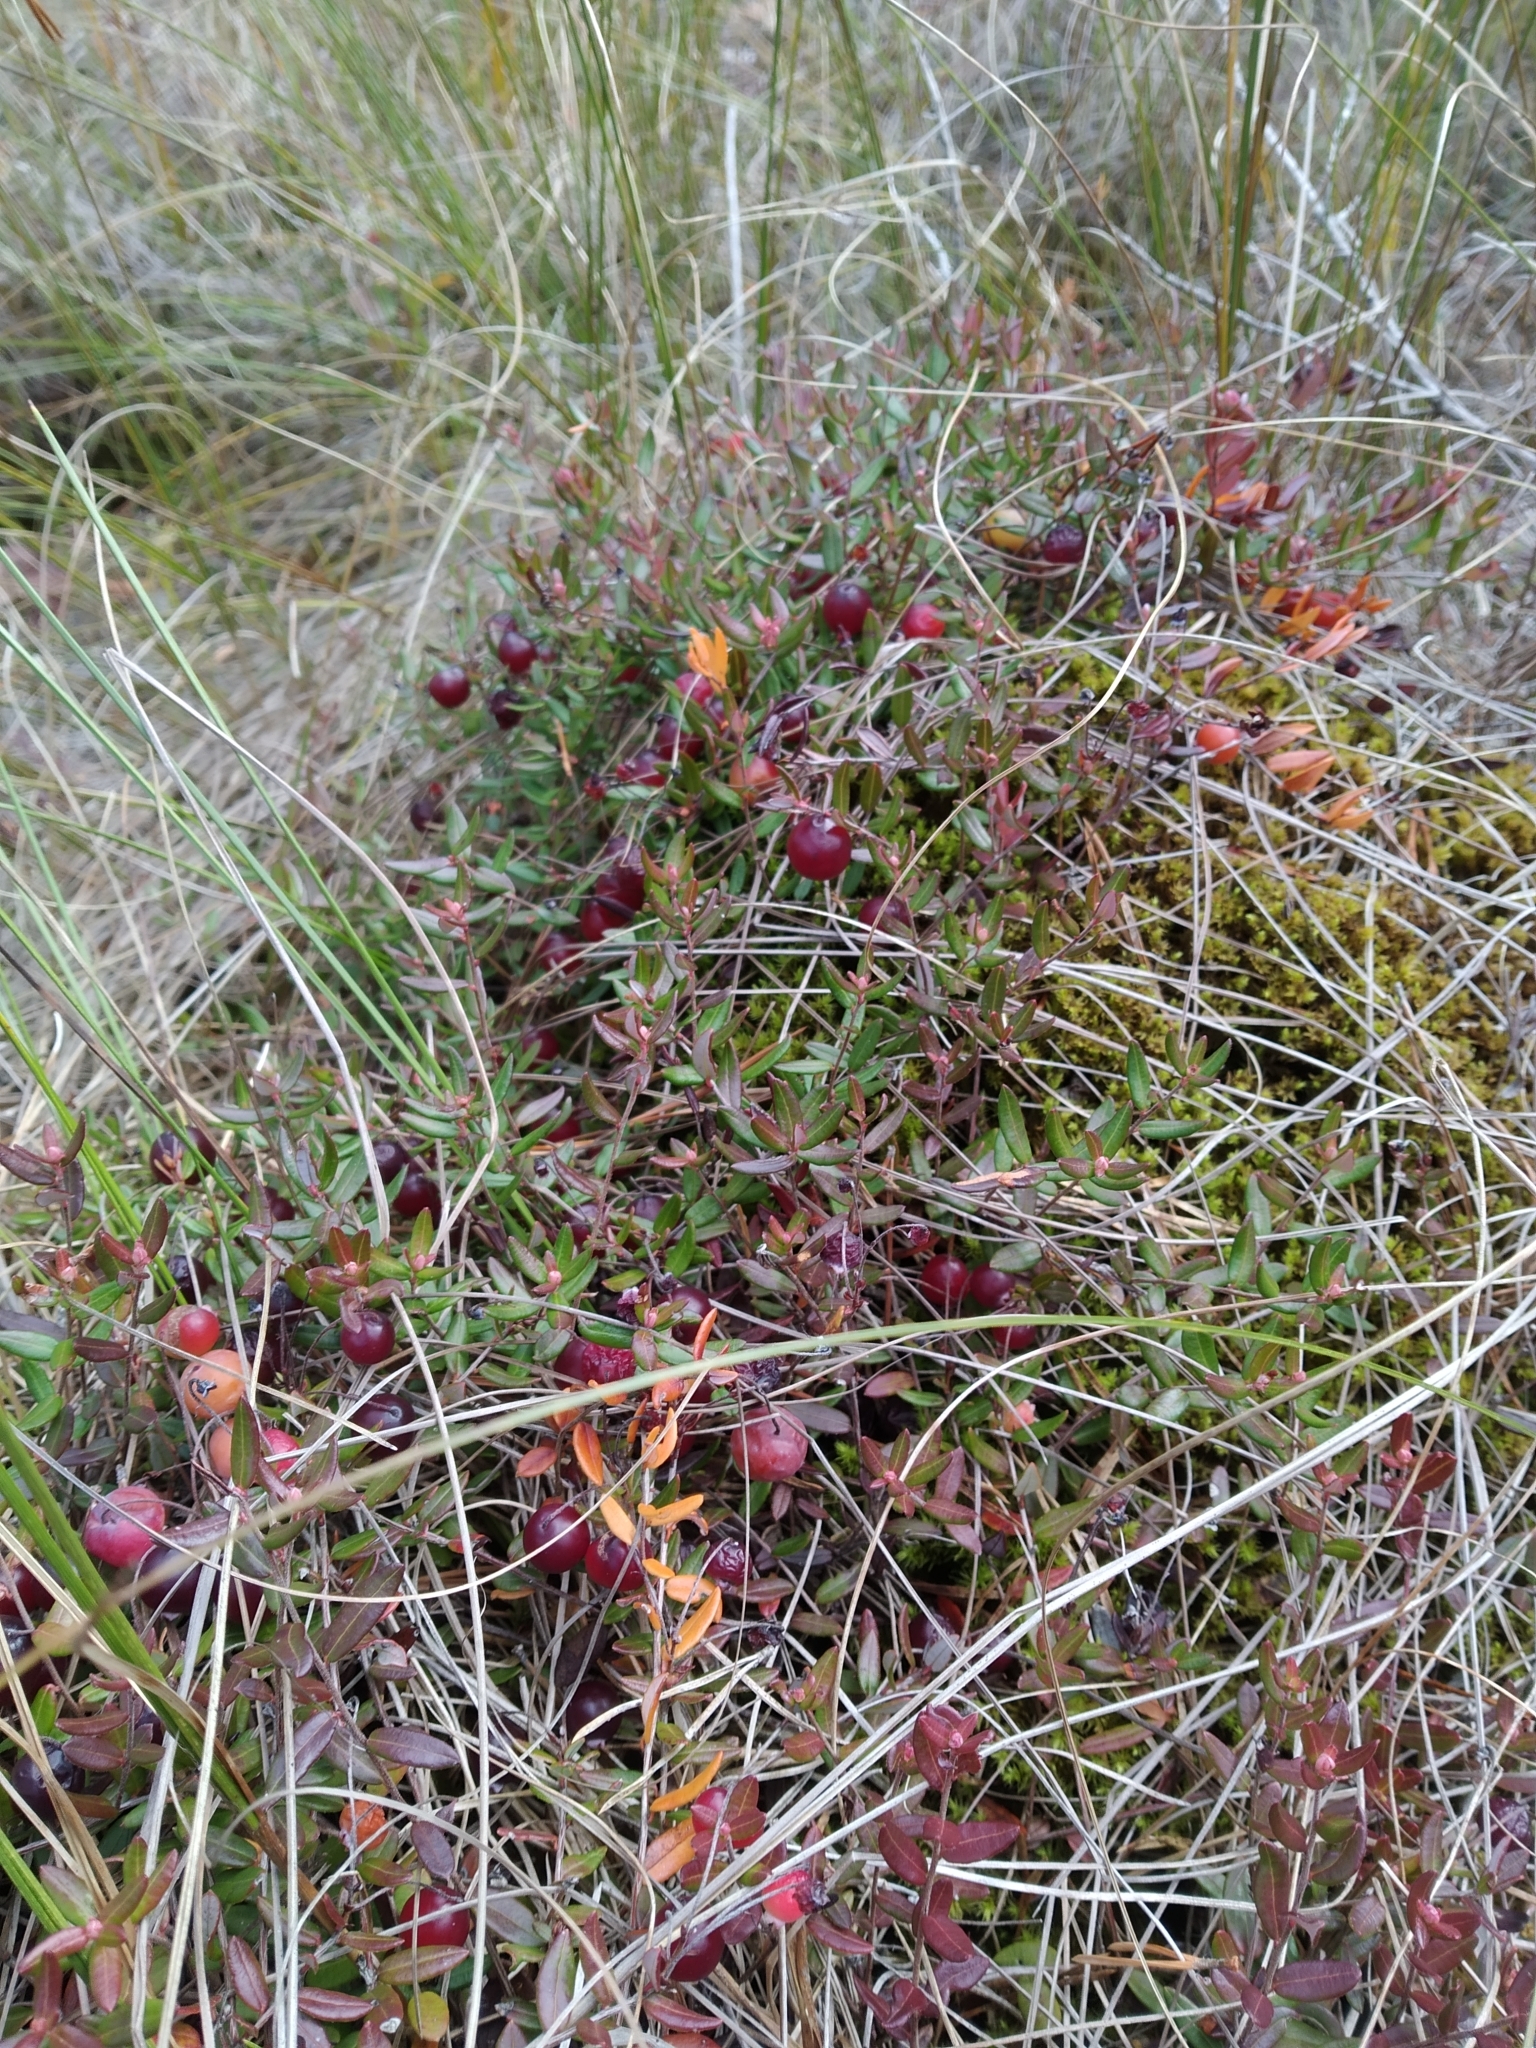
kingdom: Plantae
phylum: Tracheophyta
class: Magnoliopsida
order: Ericales
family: Ericaceae
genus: Vaccinium
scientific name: Vaccinium oxycoccos
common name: Cranberry
